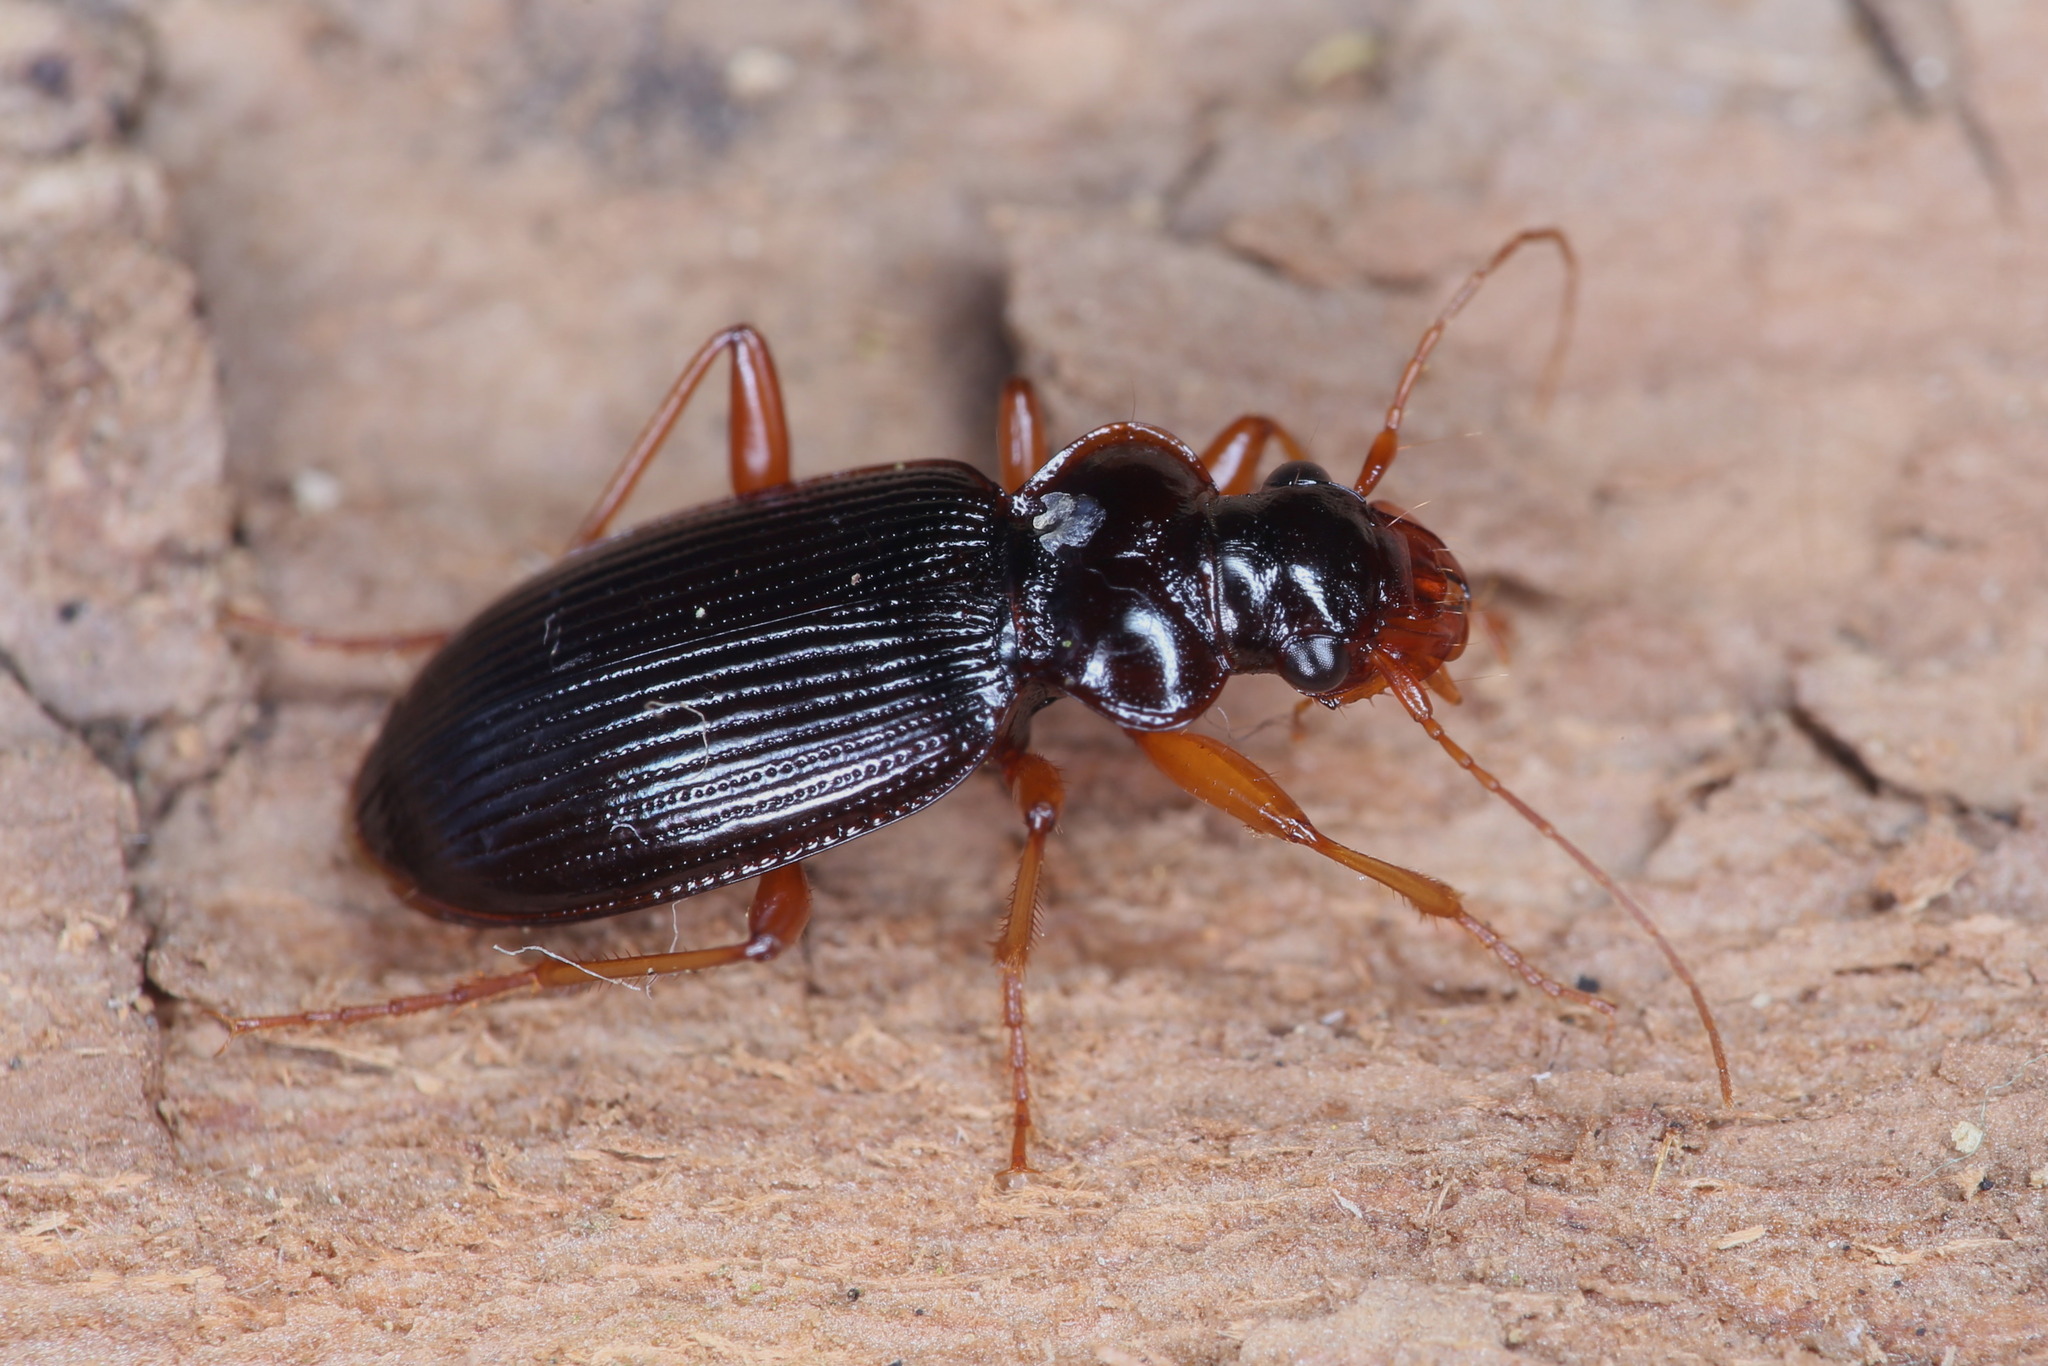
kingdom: Animalia
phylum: Arthropoda
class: Insecta
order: Coleoptera
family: Carabidae
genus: Leistus
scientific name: Leistus rufomarginatus
